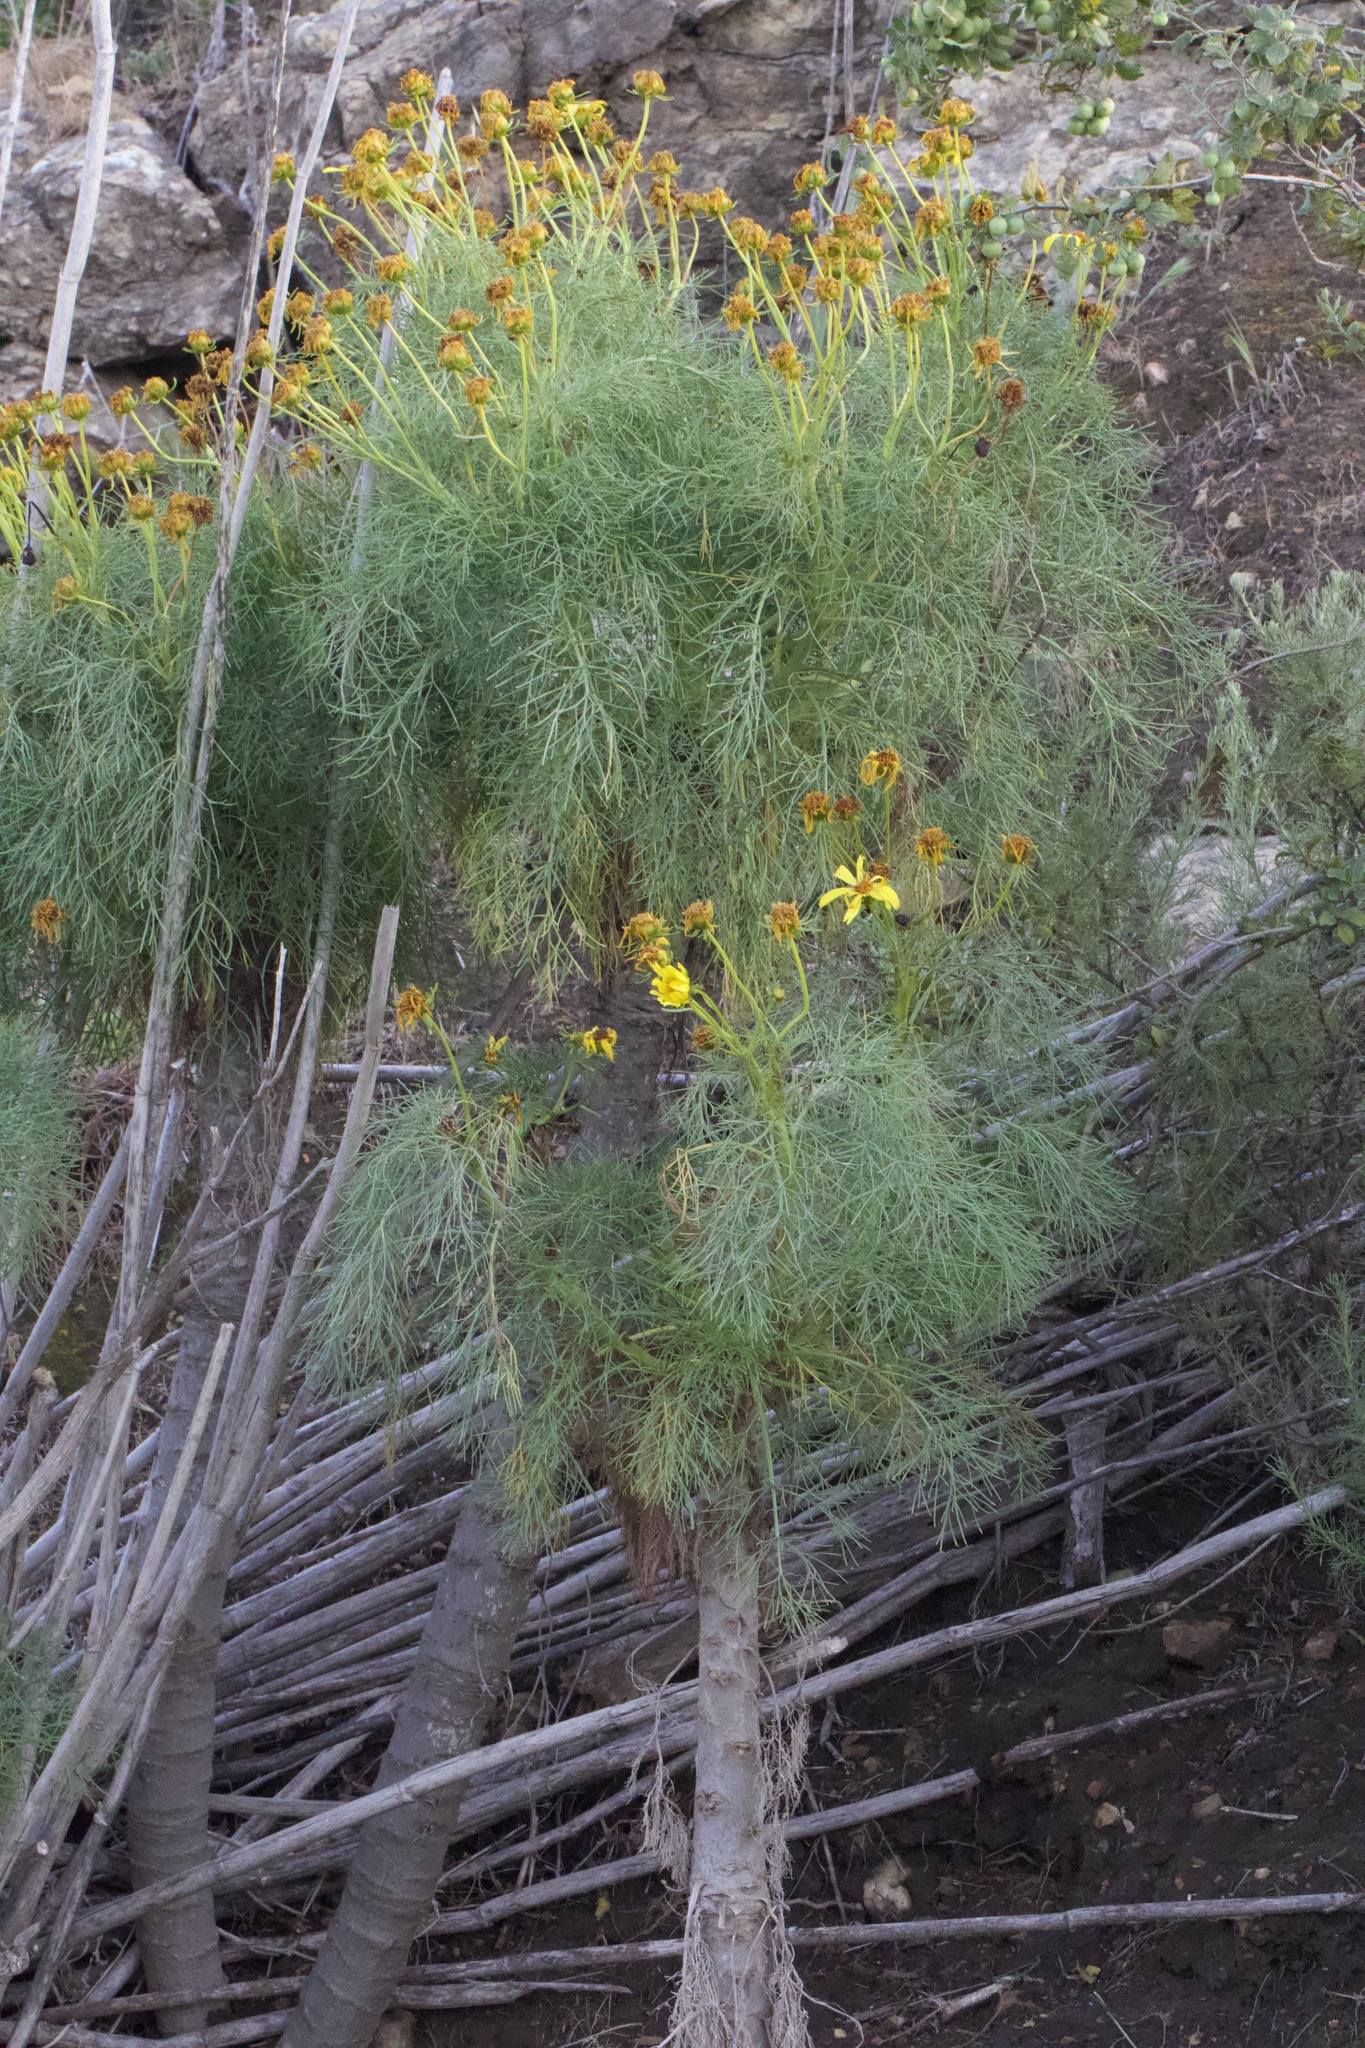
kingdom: Plantae
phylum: Tracheophyta
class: Magnoliopsida
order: Asterales
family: Asteraceae
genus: Coreopsis
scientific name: Coreopsis gigantea
